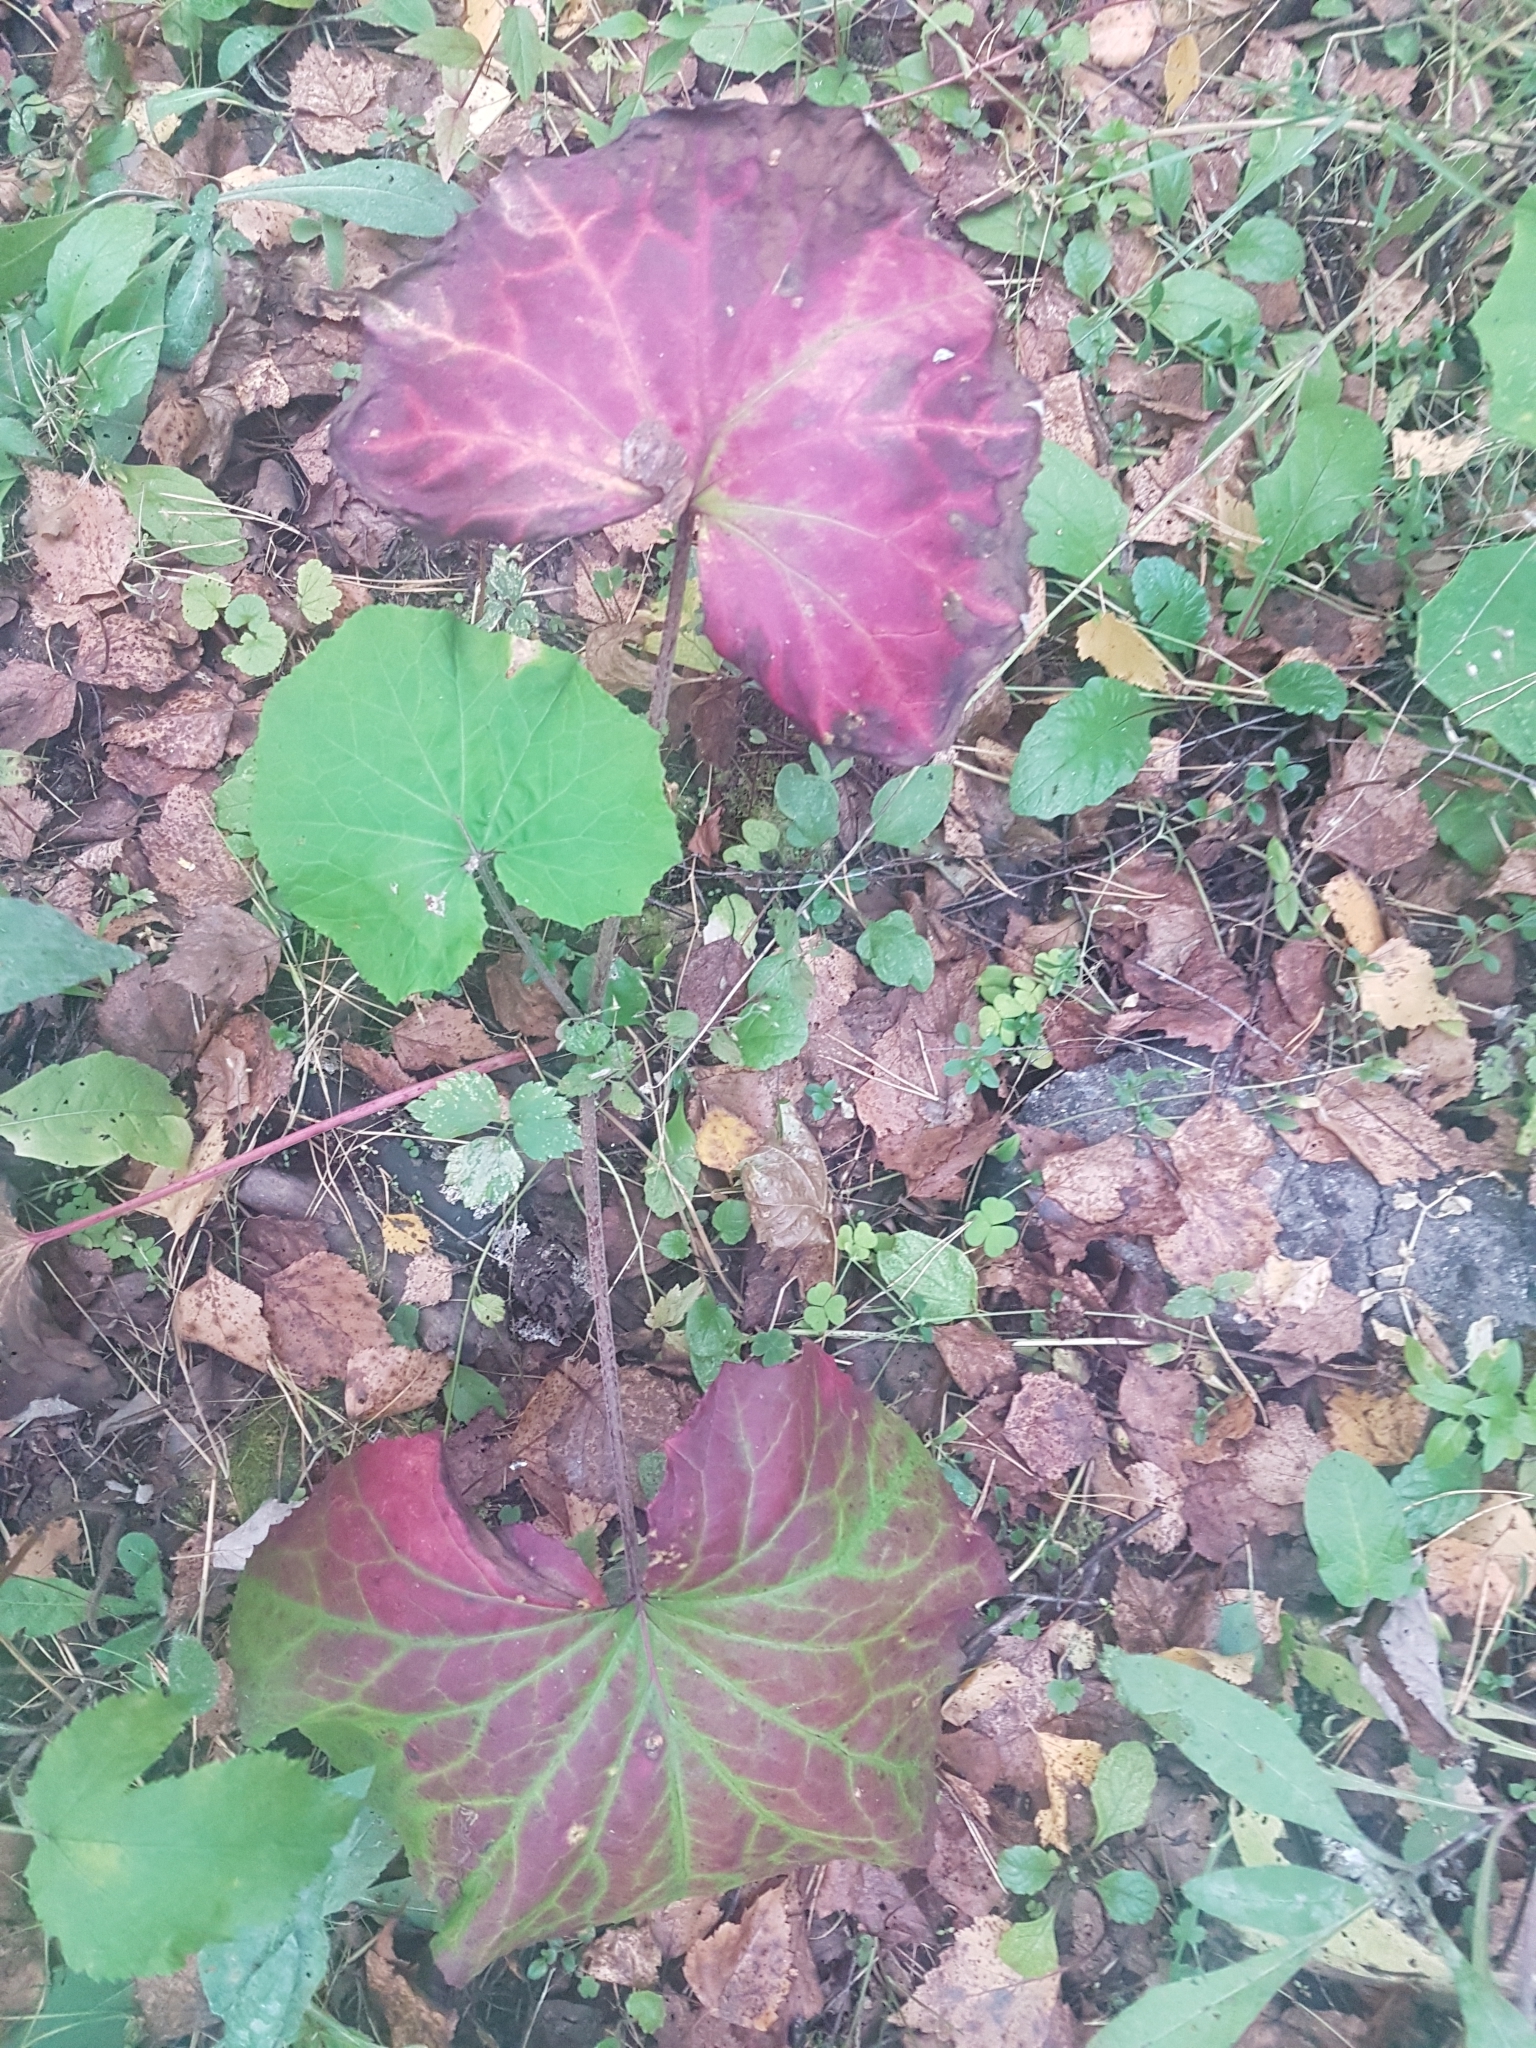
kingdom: Plantae
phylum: Tracheophyta
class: Magnoliopsida
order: Asterales
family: Asteraceae
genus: Tussilago
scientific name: Tussilago farfara
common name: Coltsfoot
